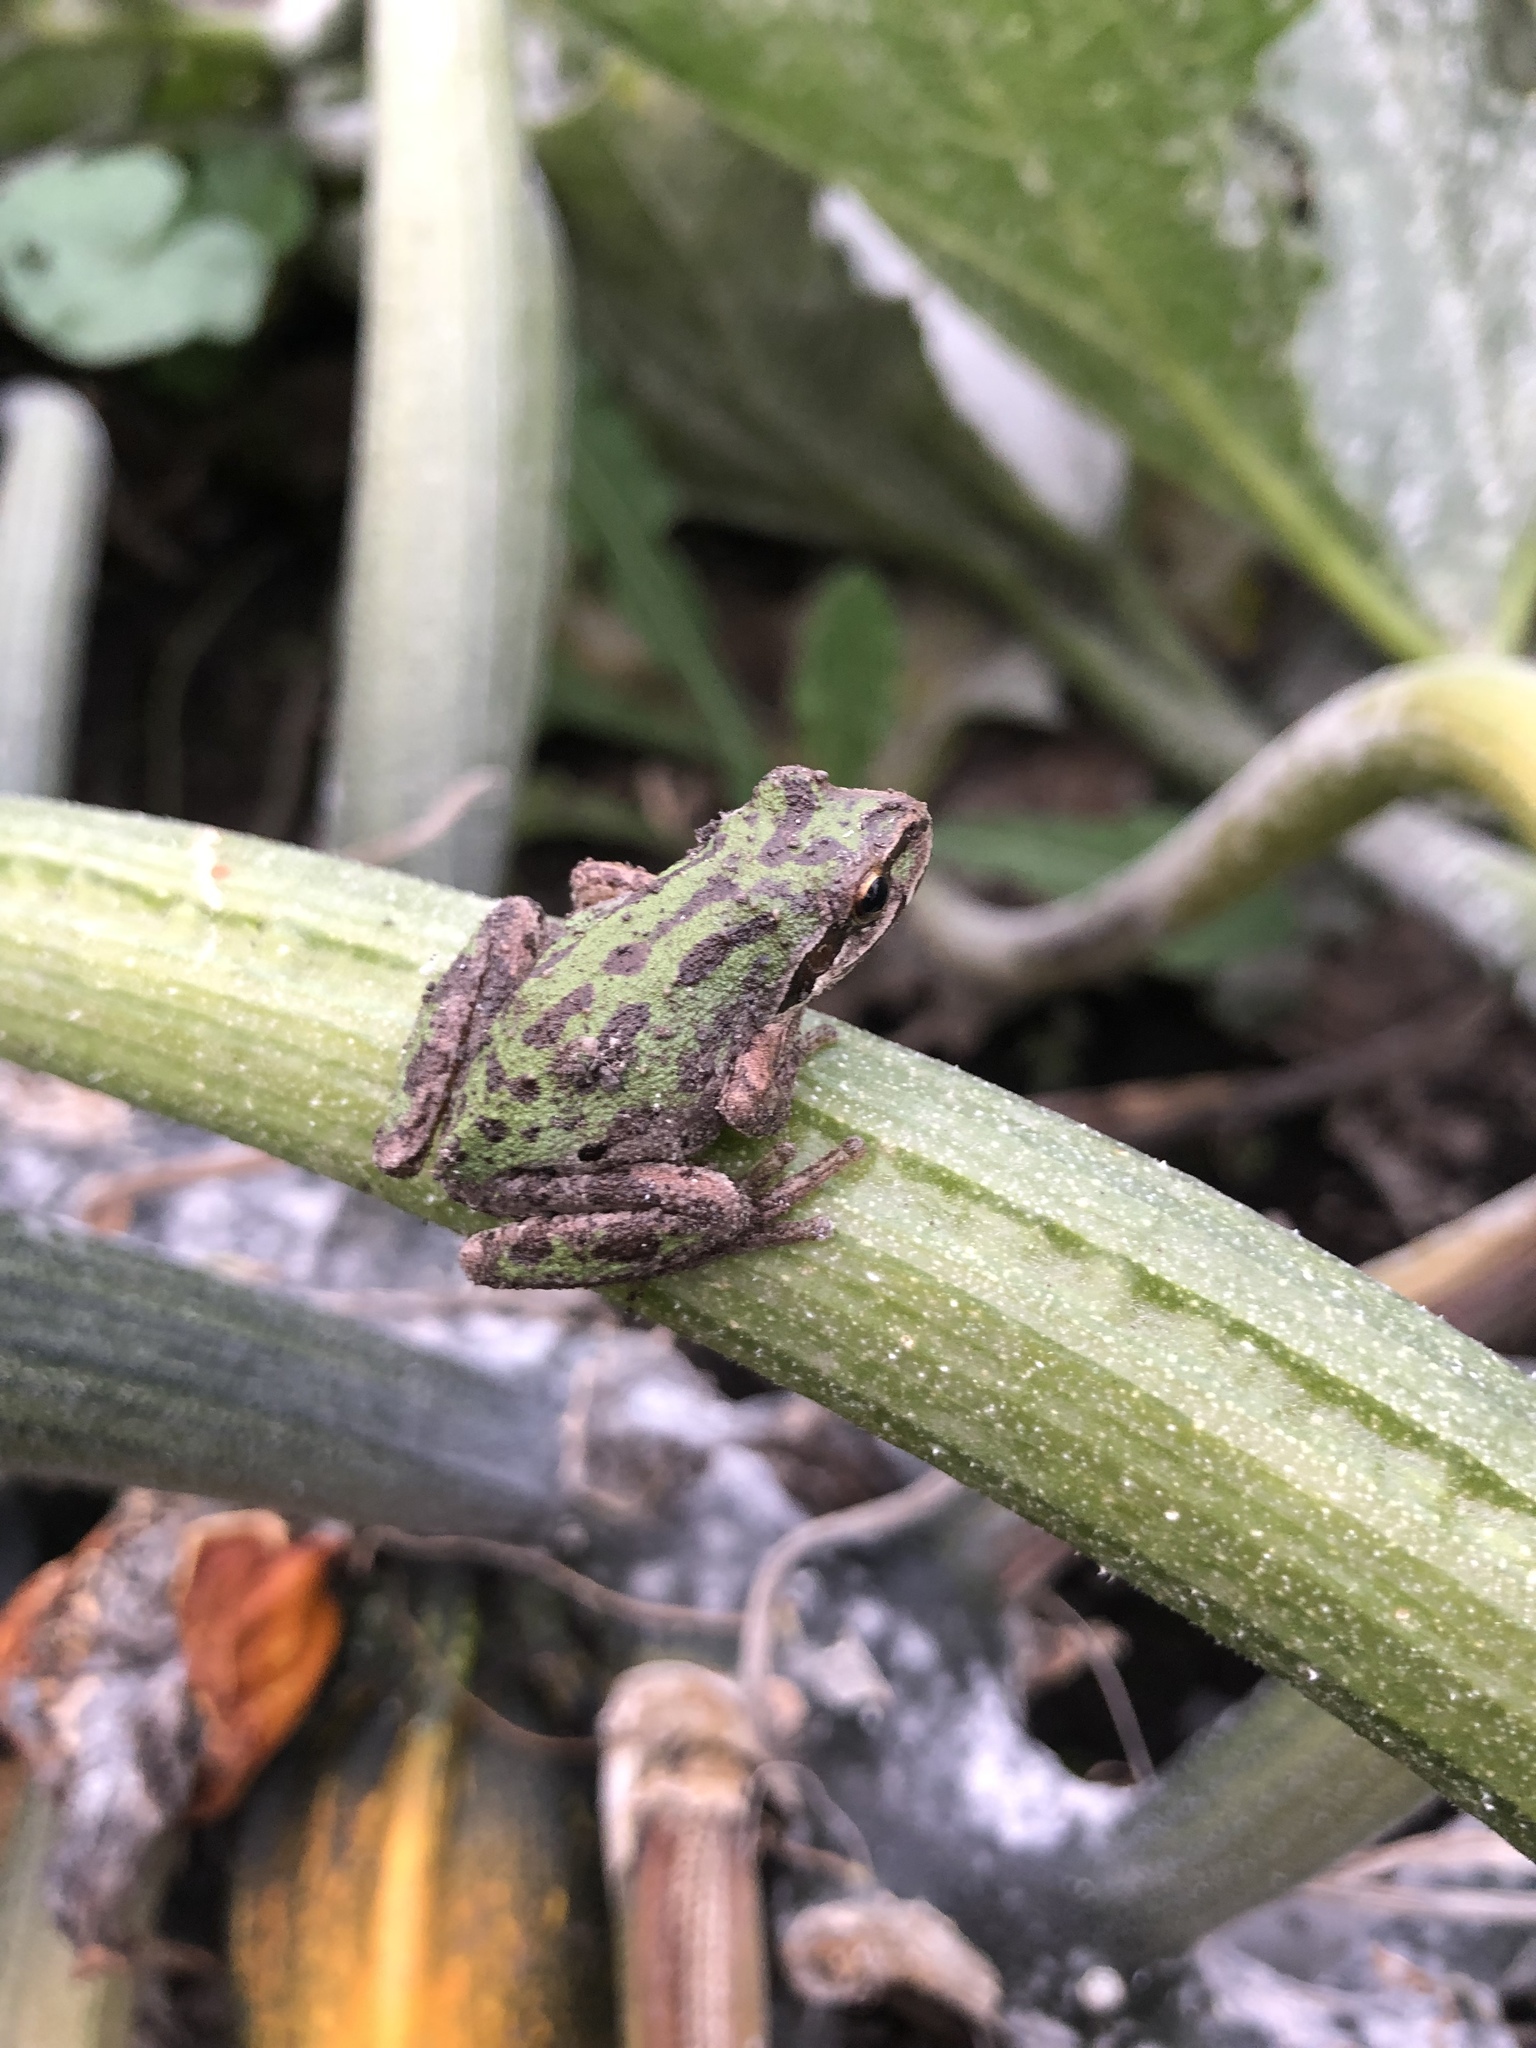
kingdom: Animalia
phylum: Chordata
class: Amphibia
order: Anura
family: Hylidae
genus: Pseudacris
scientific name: Pseudacris regilla
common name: Pacific chorus frog
